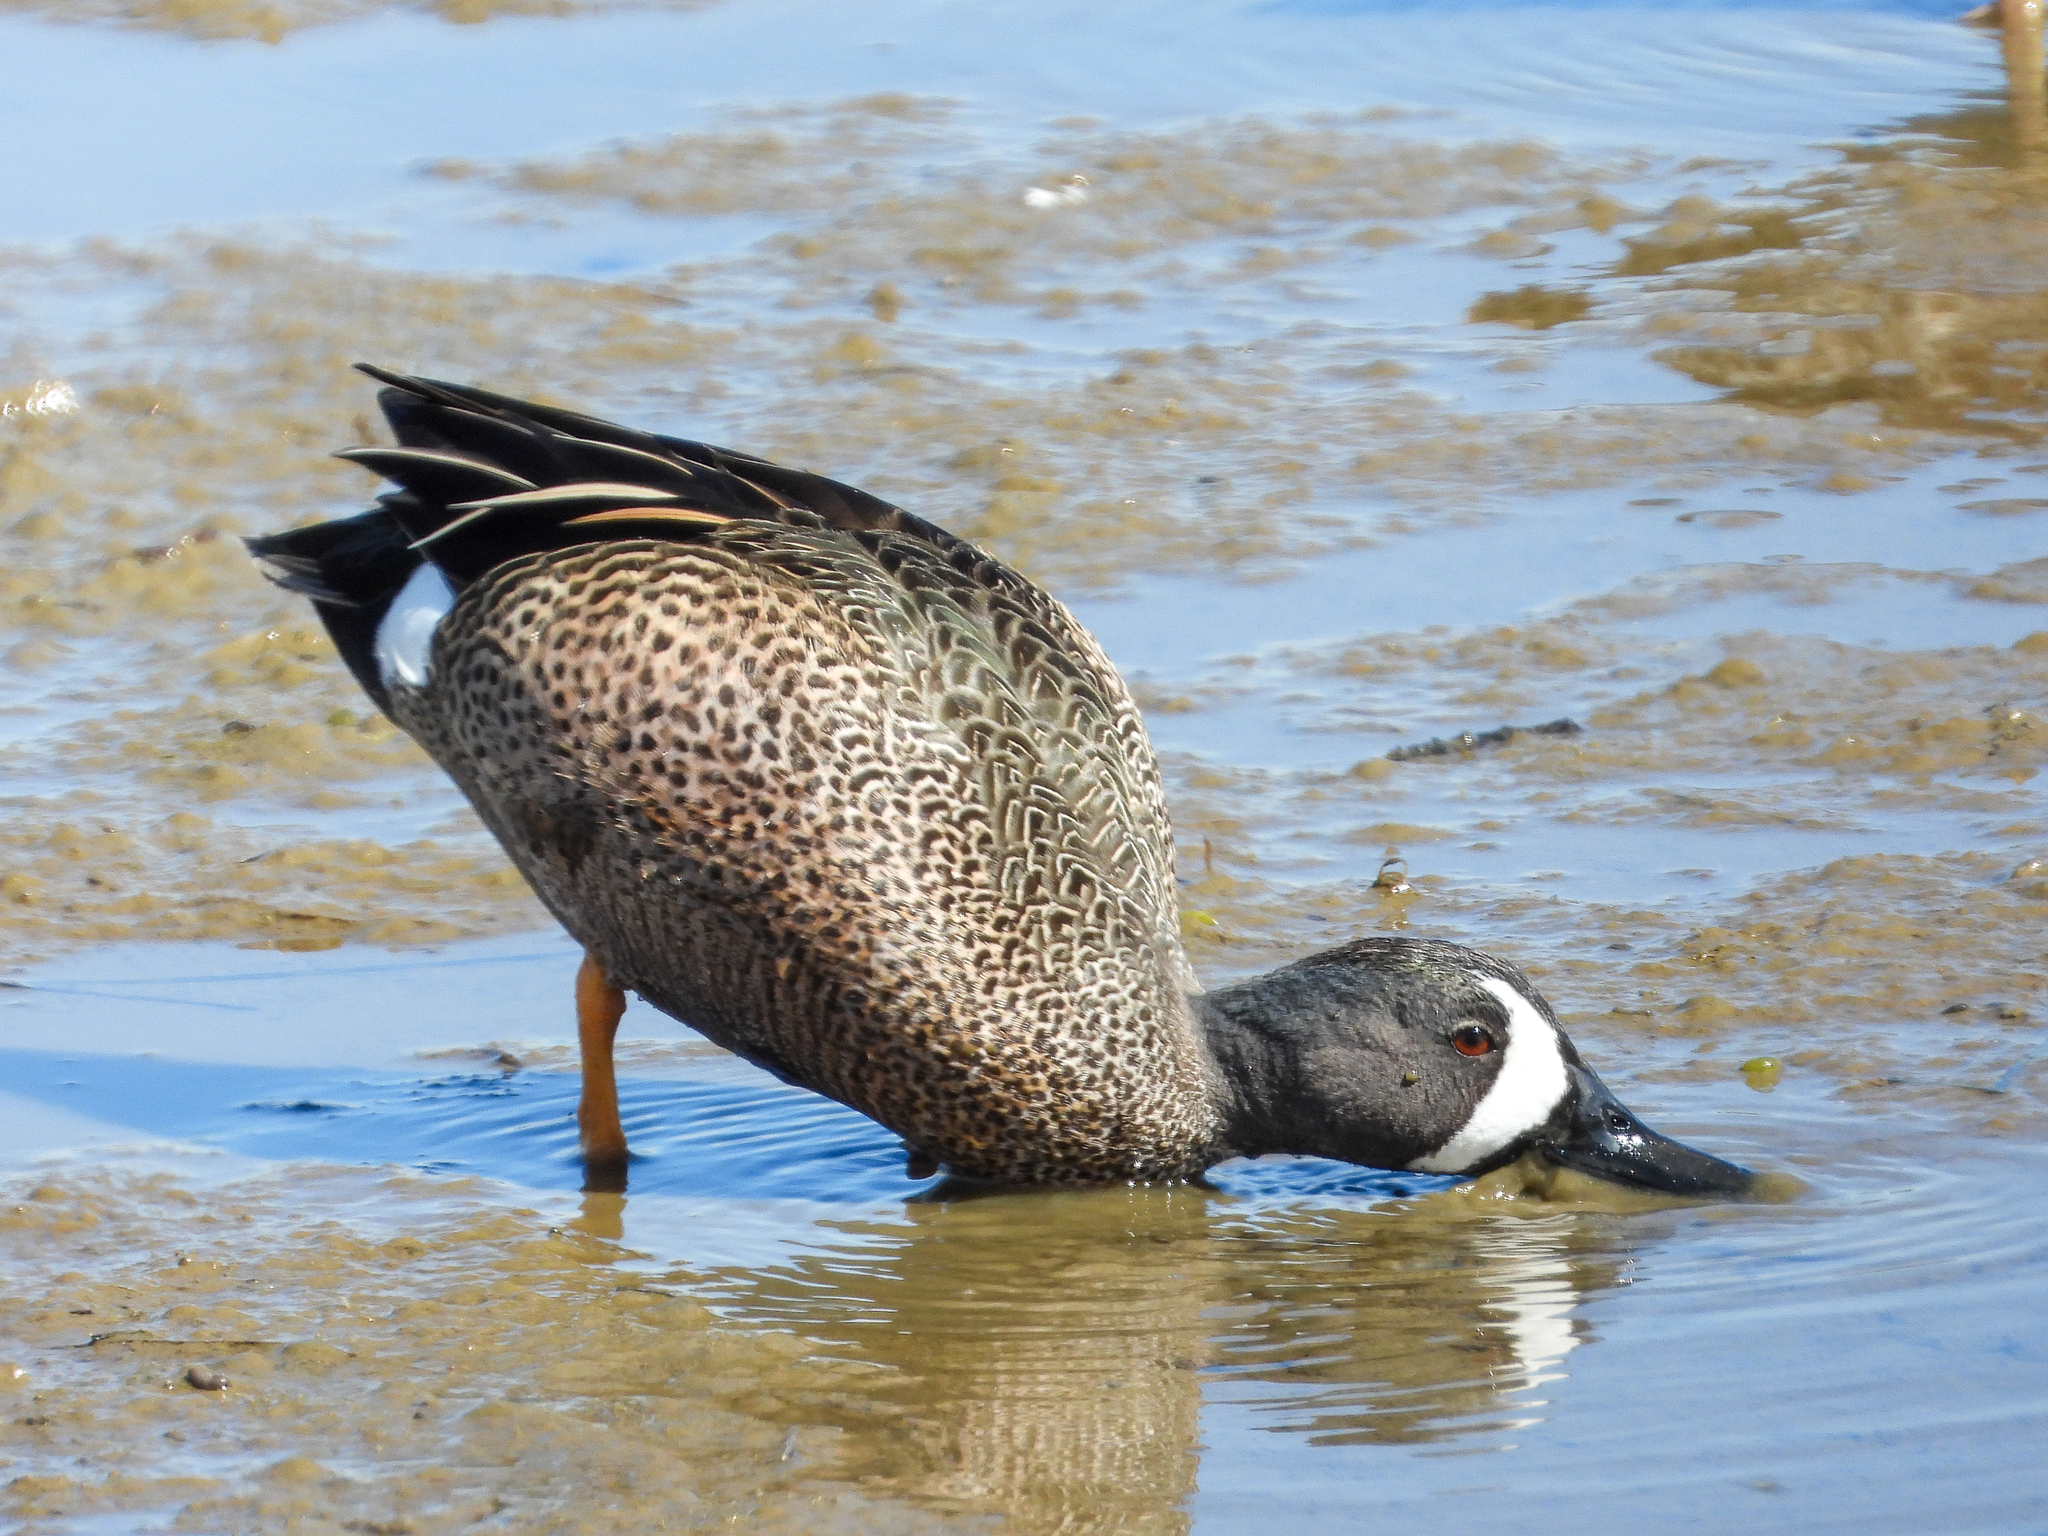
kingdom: Animalia
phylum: Chordata
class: Aves
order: Anseriformes
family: Anatidae
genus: Spatula
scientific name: Spatula discors
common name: Blue-winged teal
